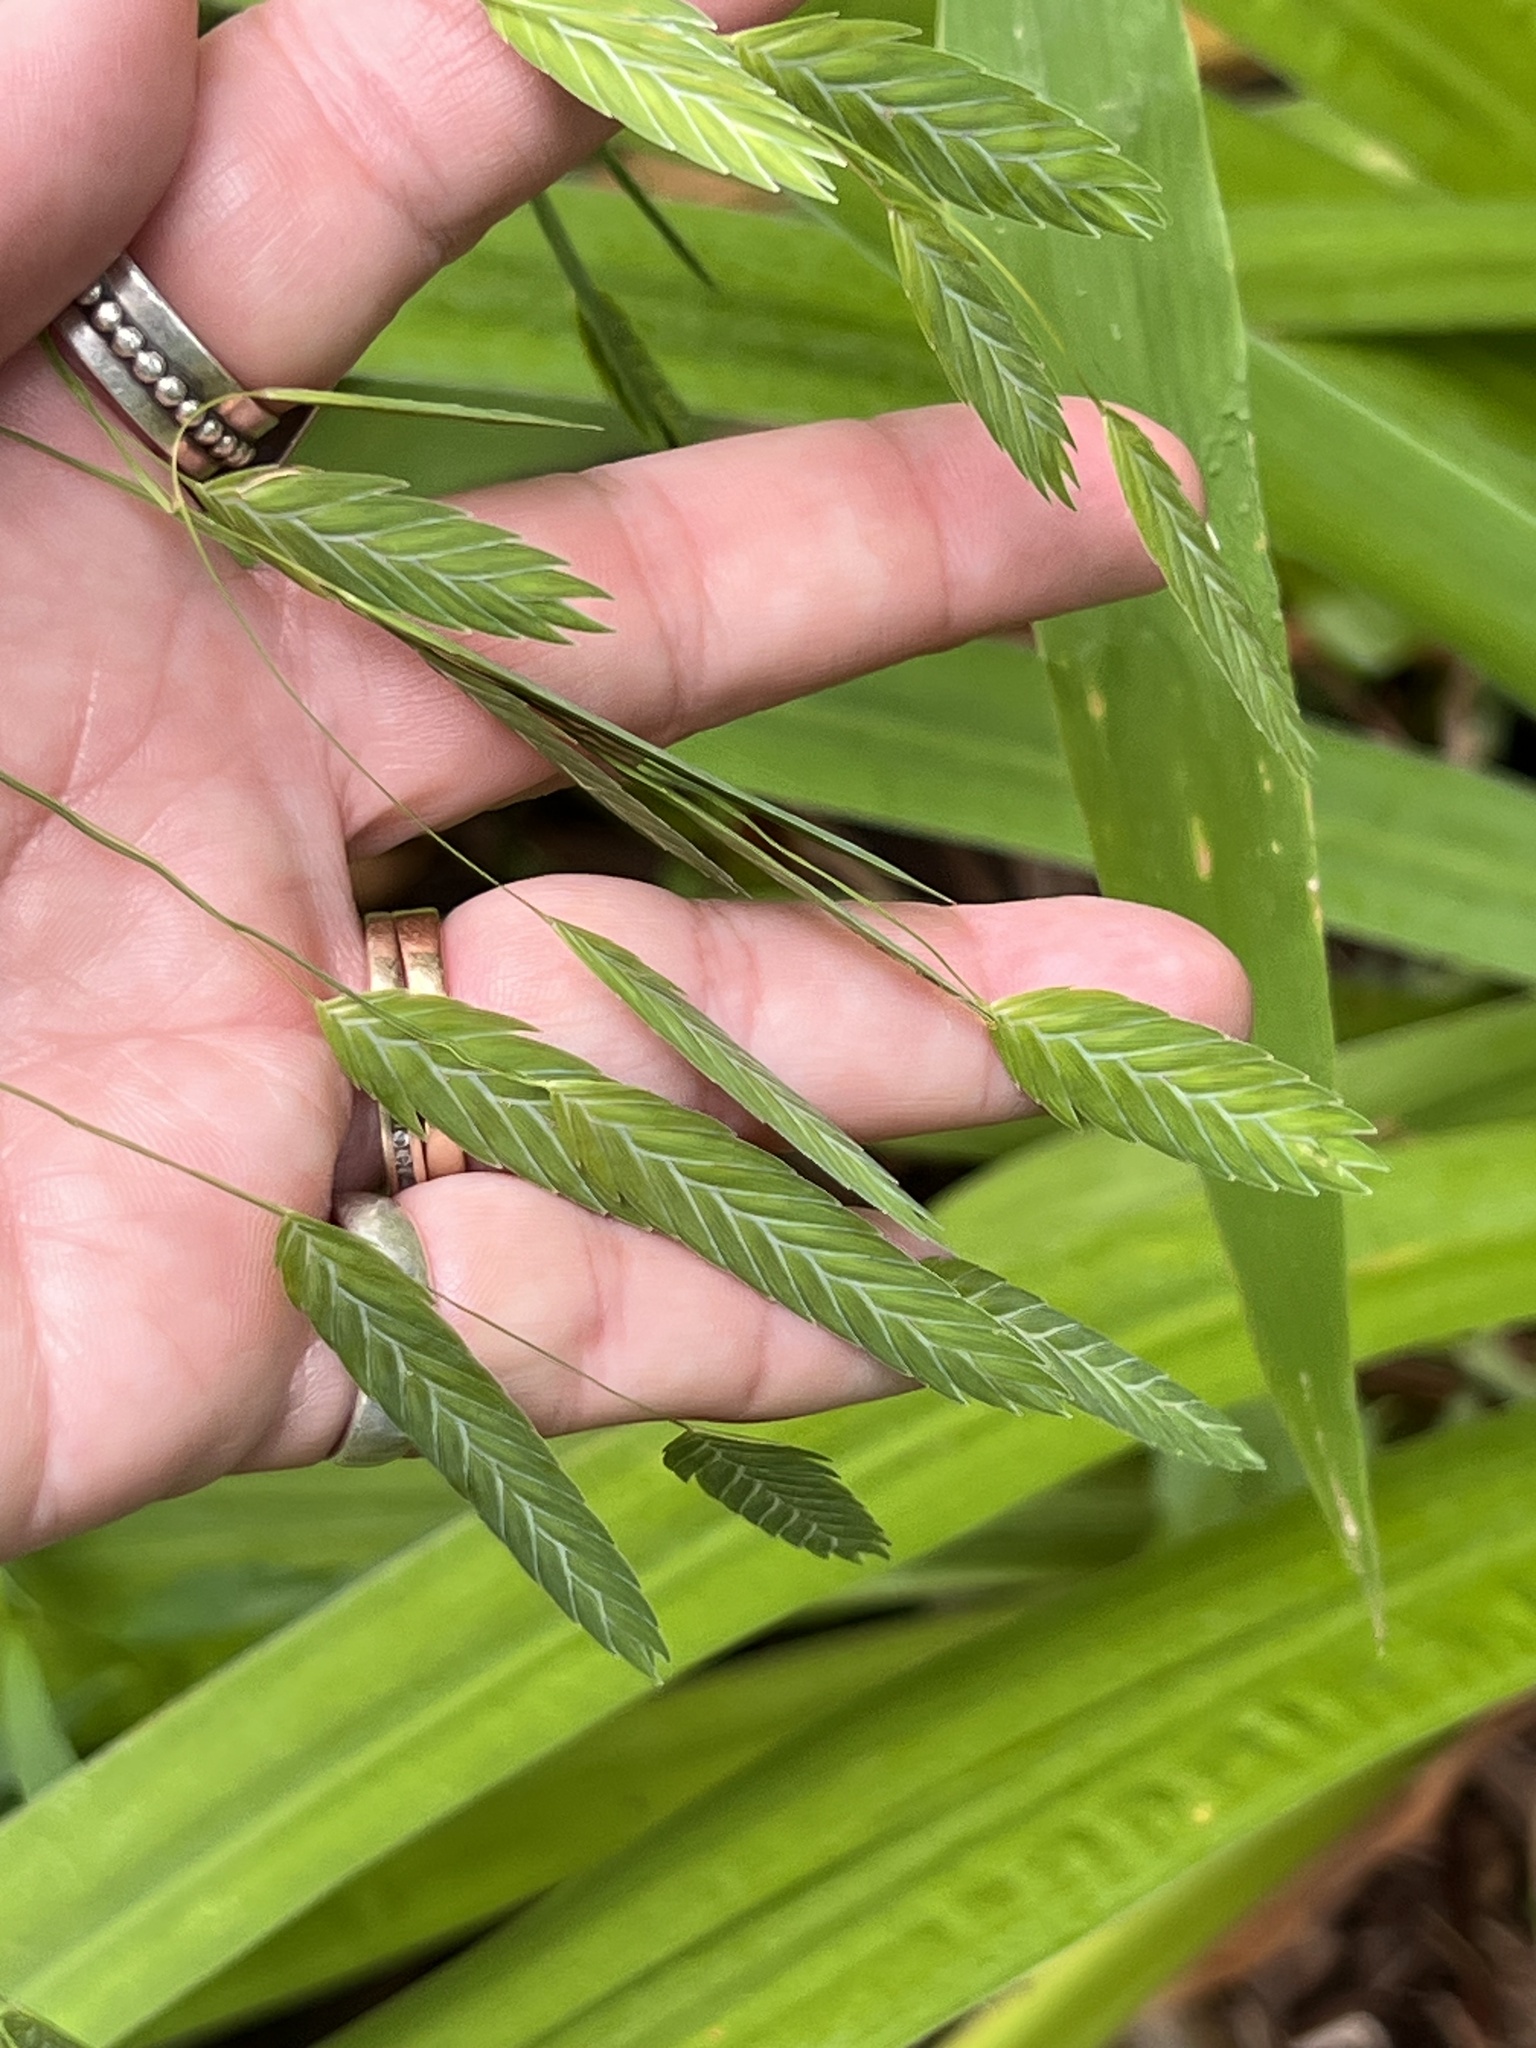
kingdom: Plantae
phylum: Tracheophyta
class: Liliopsida
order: Poales
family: Poaceae
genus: Chasmanthium
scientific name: Chasmanthium latifolium
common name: Broad-leaved chasmanthium
